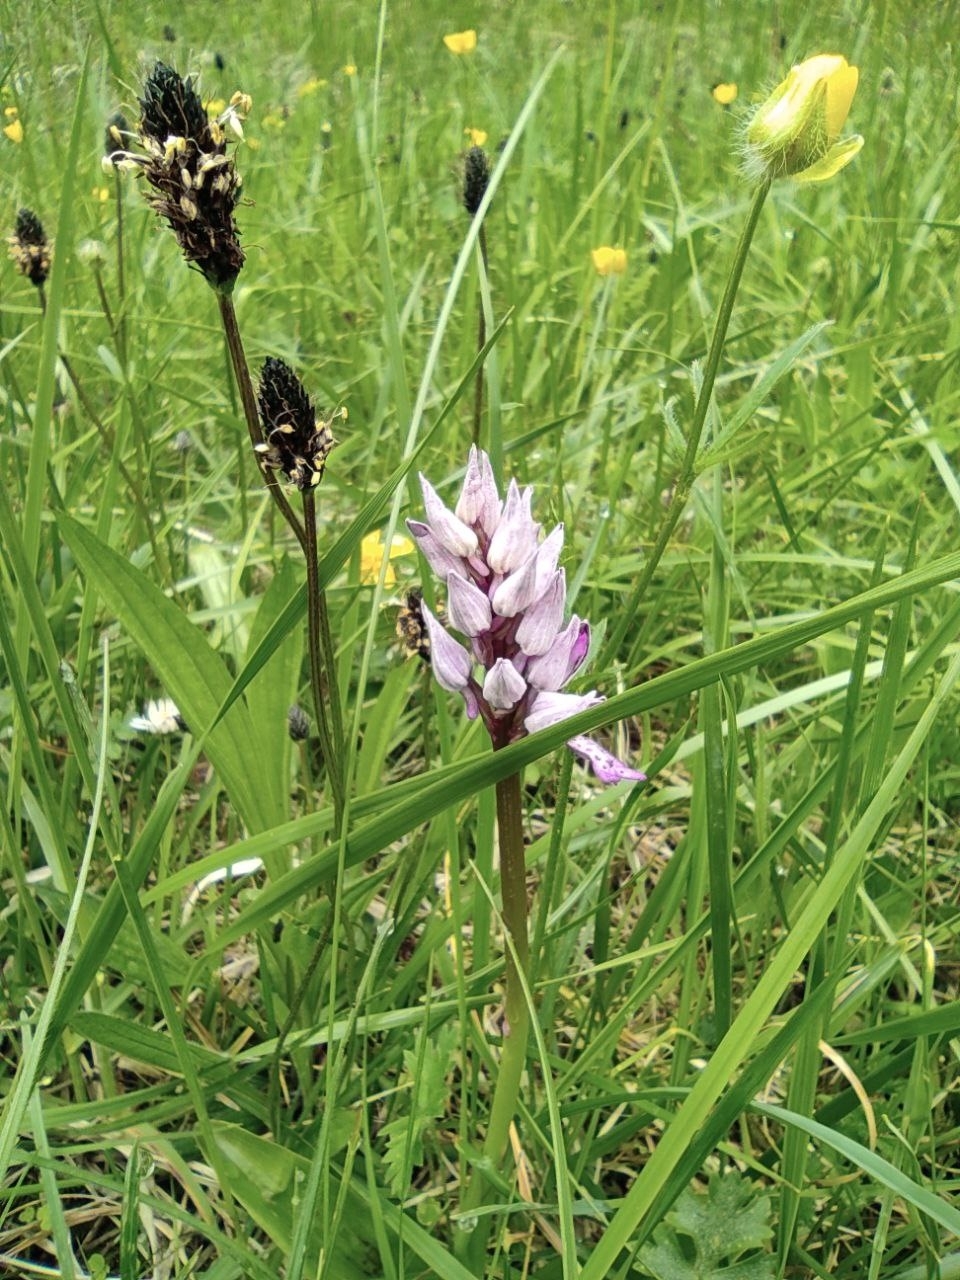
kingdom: Plantae
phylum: Tracheophyta
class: Liliopsida
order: Asparagales
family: Orchidaceae
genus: Orchis
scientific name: Orchis militaris
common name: Military orchid
